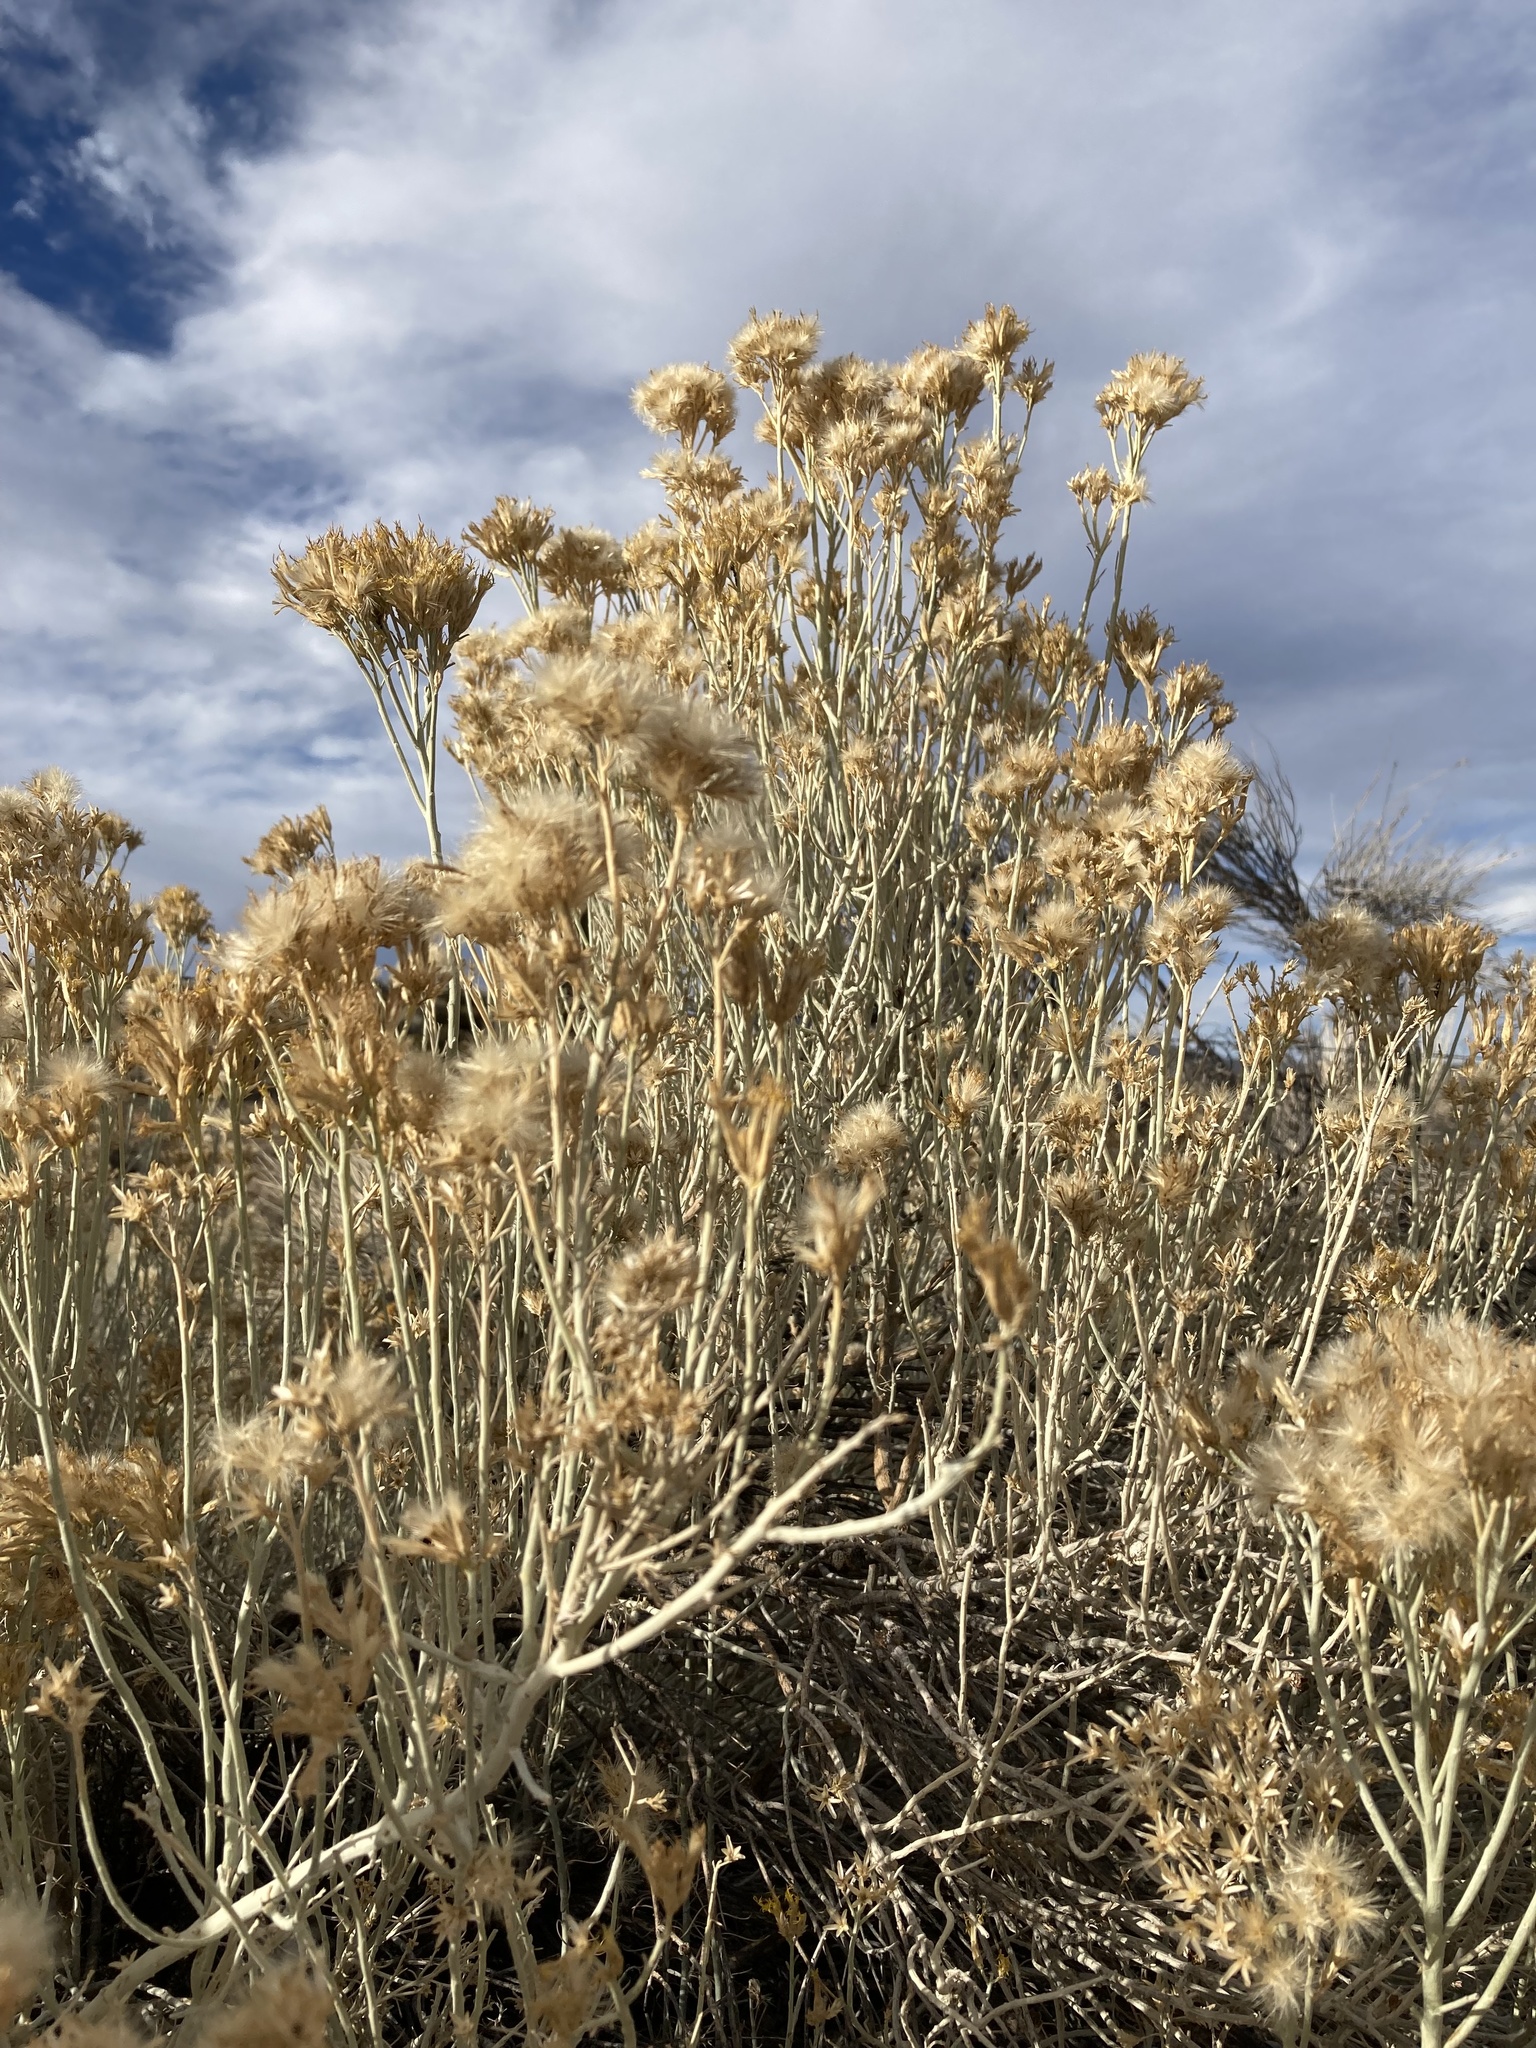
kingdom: Plantae
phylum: Tracheophyta
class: Magnoliopsida
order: Asterales
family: Asteraceae
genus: Ericameria
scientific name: Ericameria nauseosa
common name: Rubber rabbitbrush
